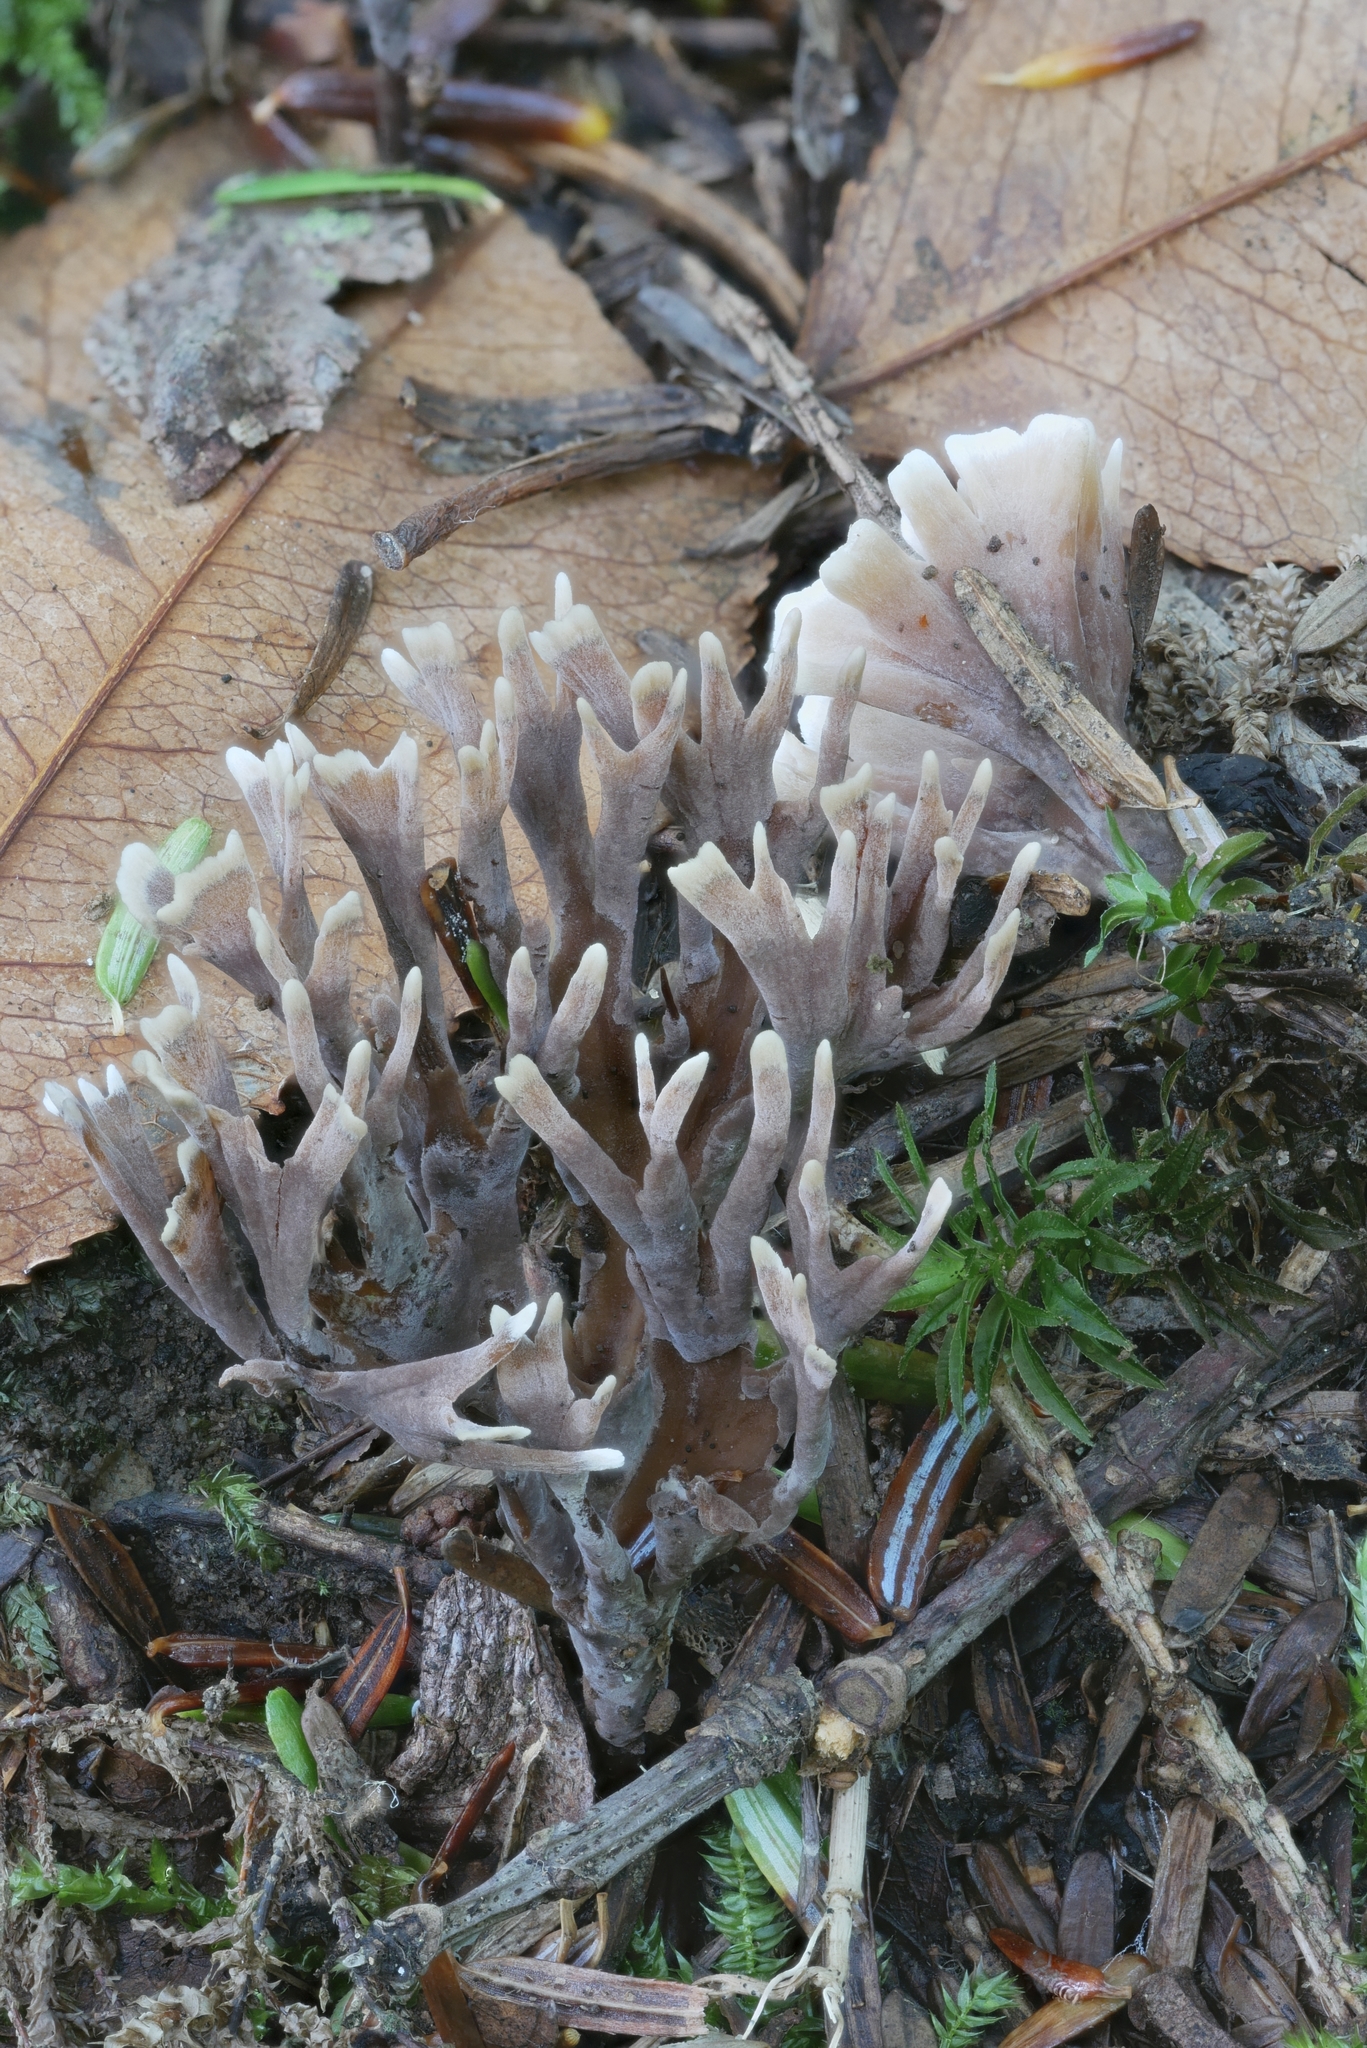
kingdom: Fungi
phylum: Basidiomycota
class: Agaricomycetes
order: Thelephorales
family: Thelephoraceae
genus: Thelephora
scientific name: Thelephora palmata
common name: Stinking earthfan
